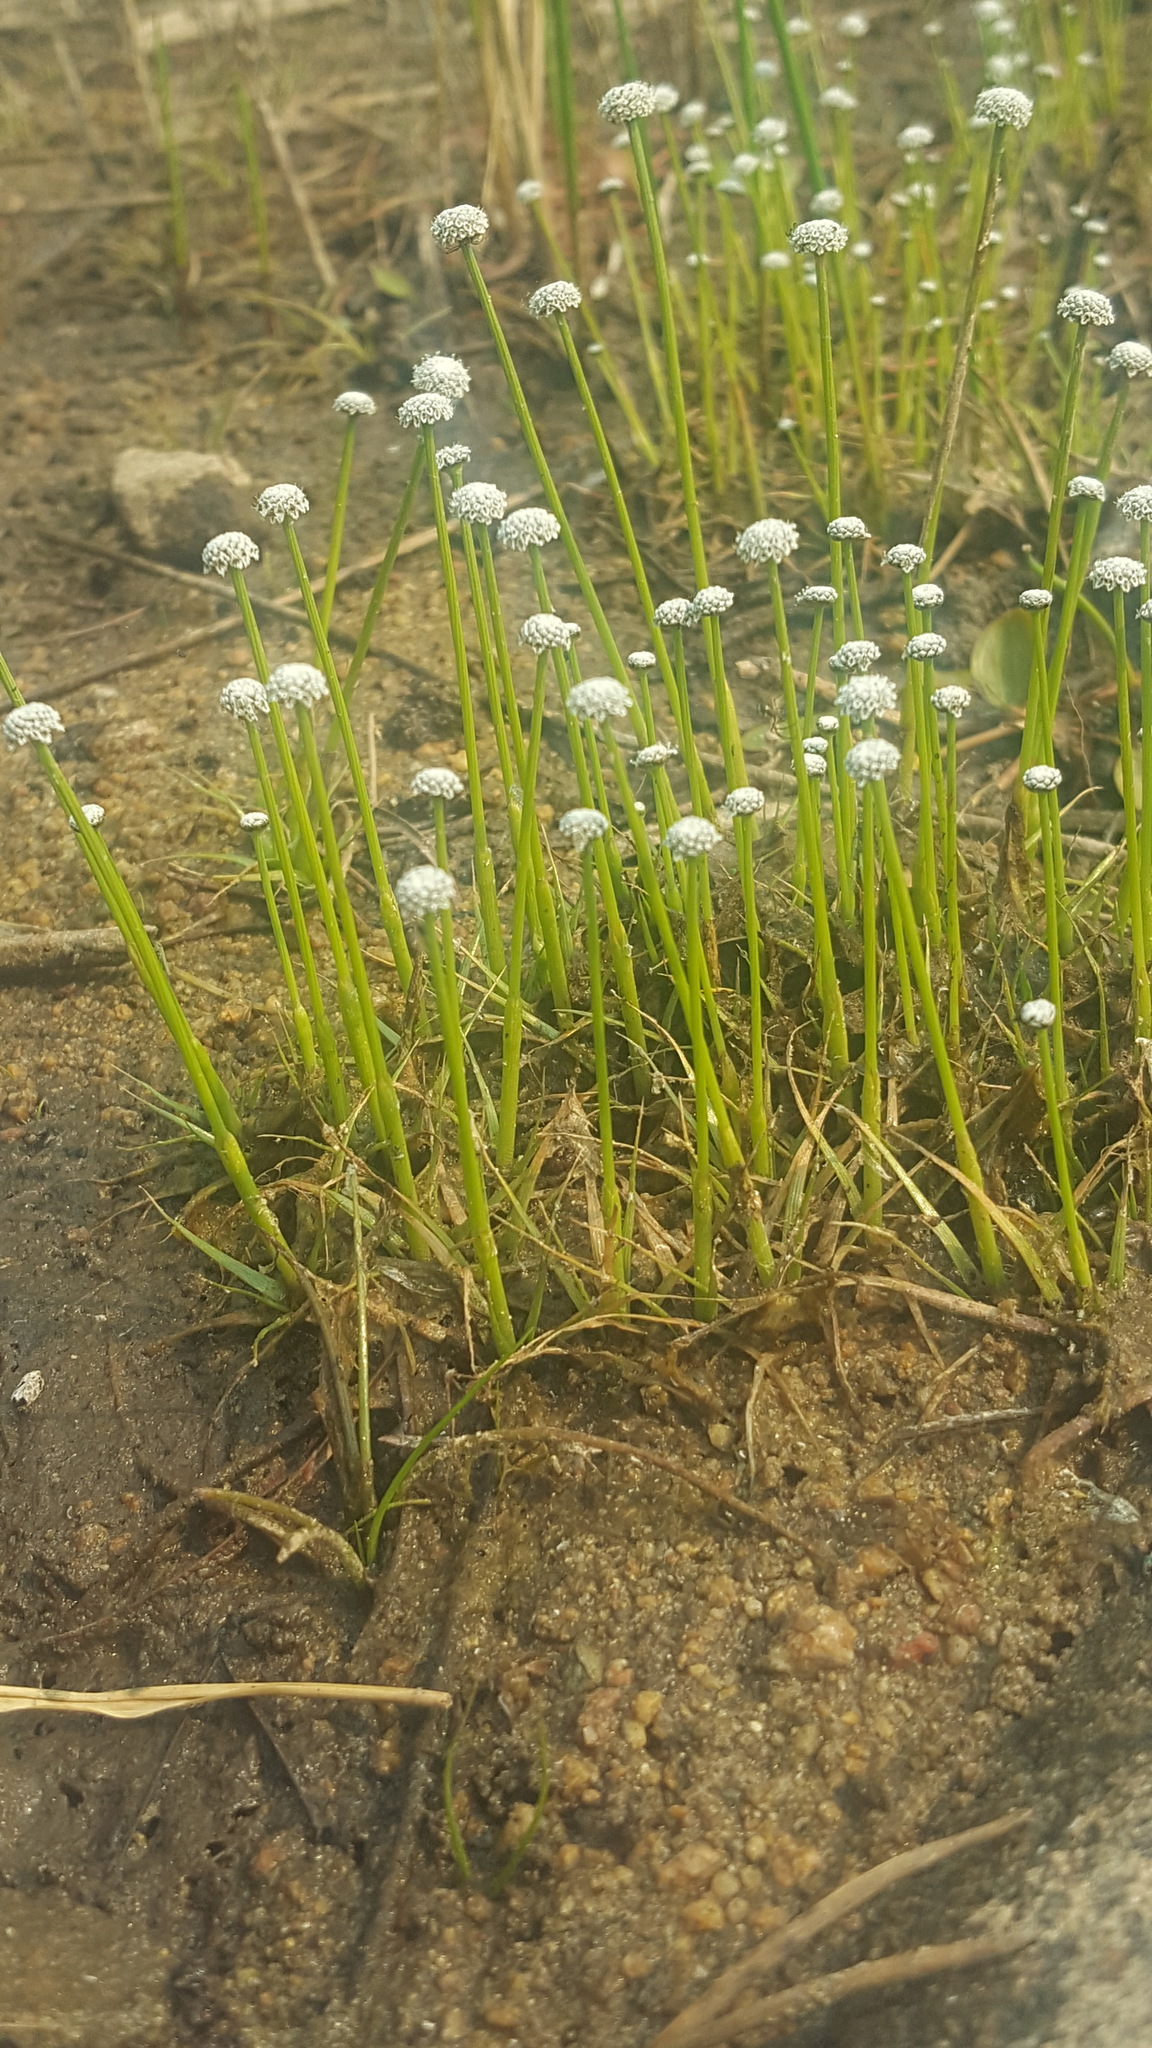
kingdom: Plantae
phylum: Tracheophyta
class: Liliopsida
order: Poales
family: Eriocaulaceae
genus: Eriocaulon
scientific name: Eriocaulon aquaticum
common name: Pipewort
